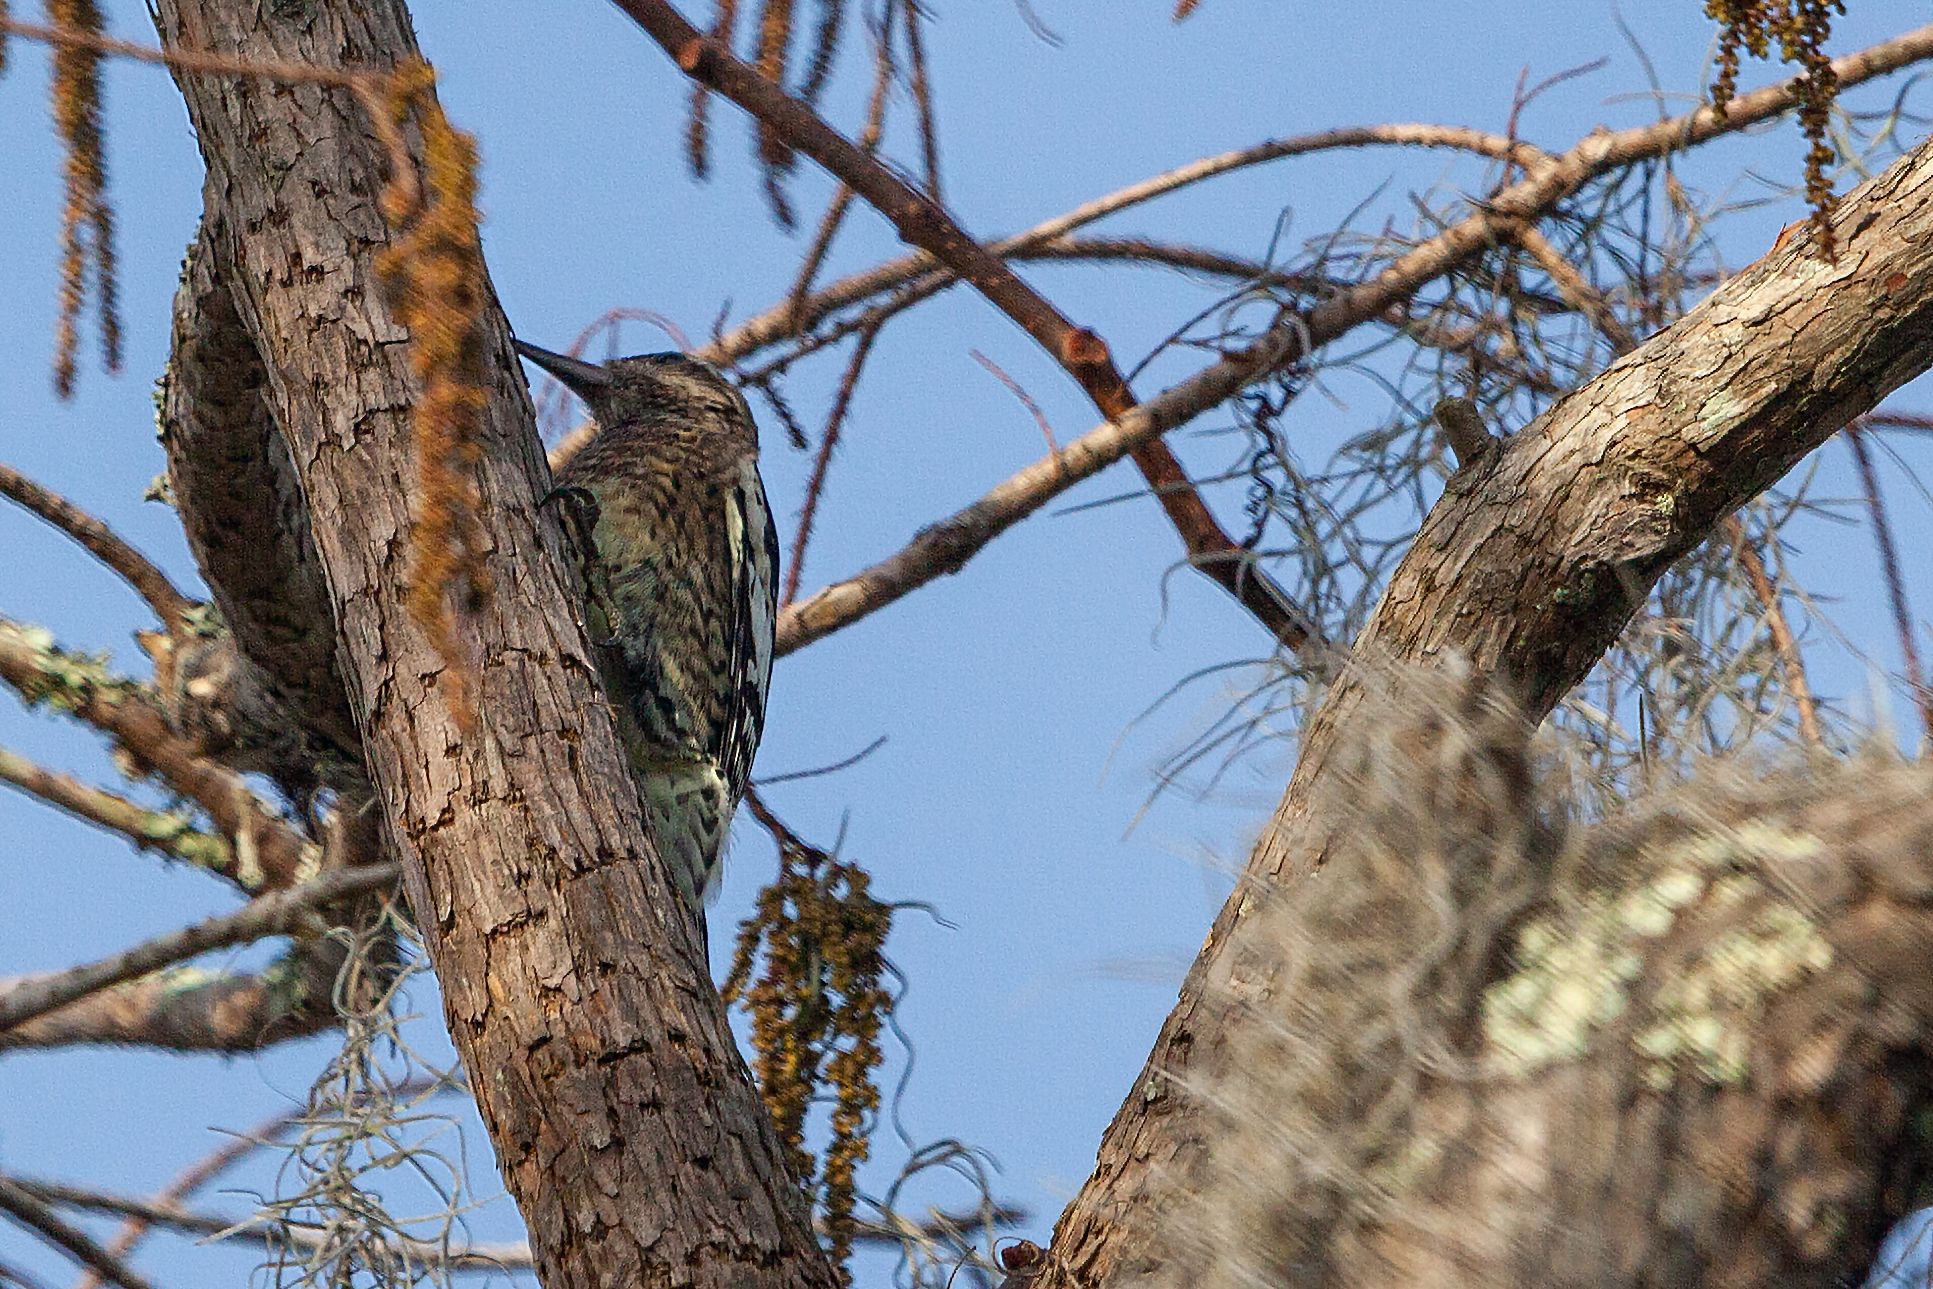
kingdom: Animalia
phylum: Chordata
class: Aves
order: Piciformes
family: Picidae
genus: Sphyrapicus
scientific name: Sphyrapicus varius
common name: Yellow-bellied sapsucker
